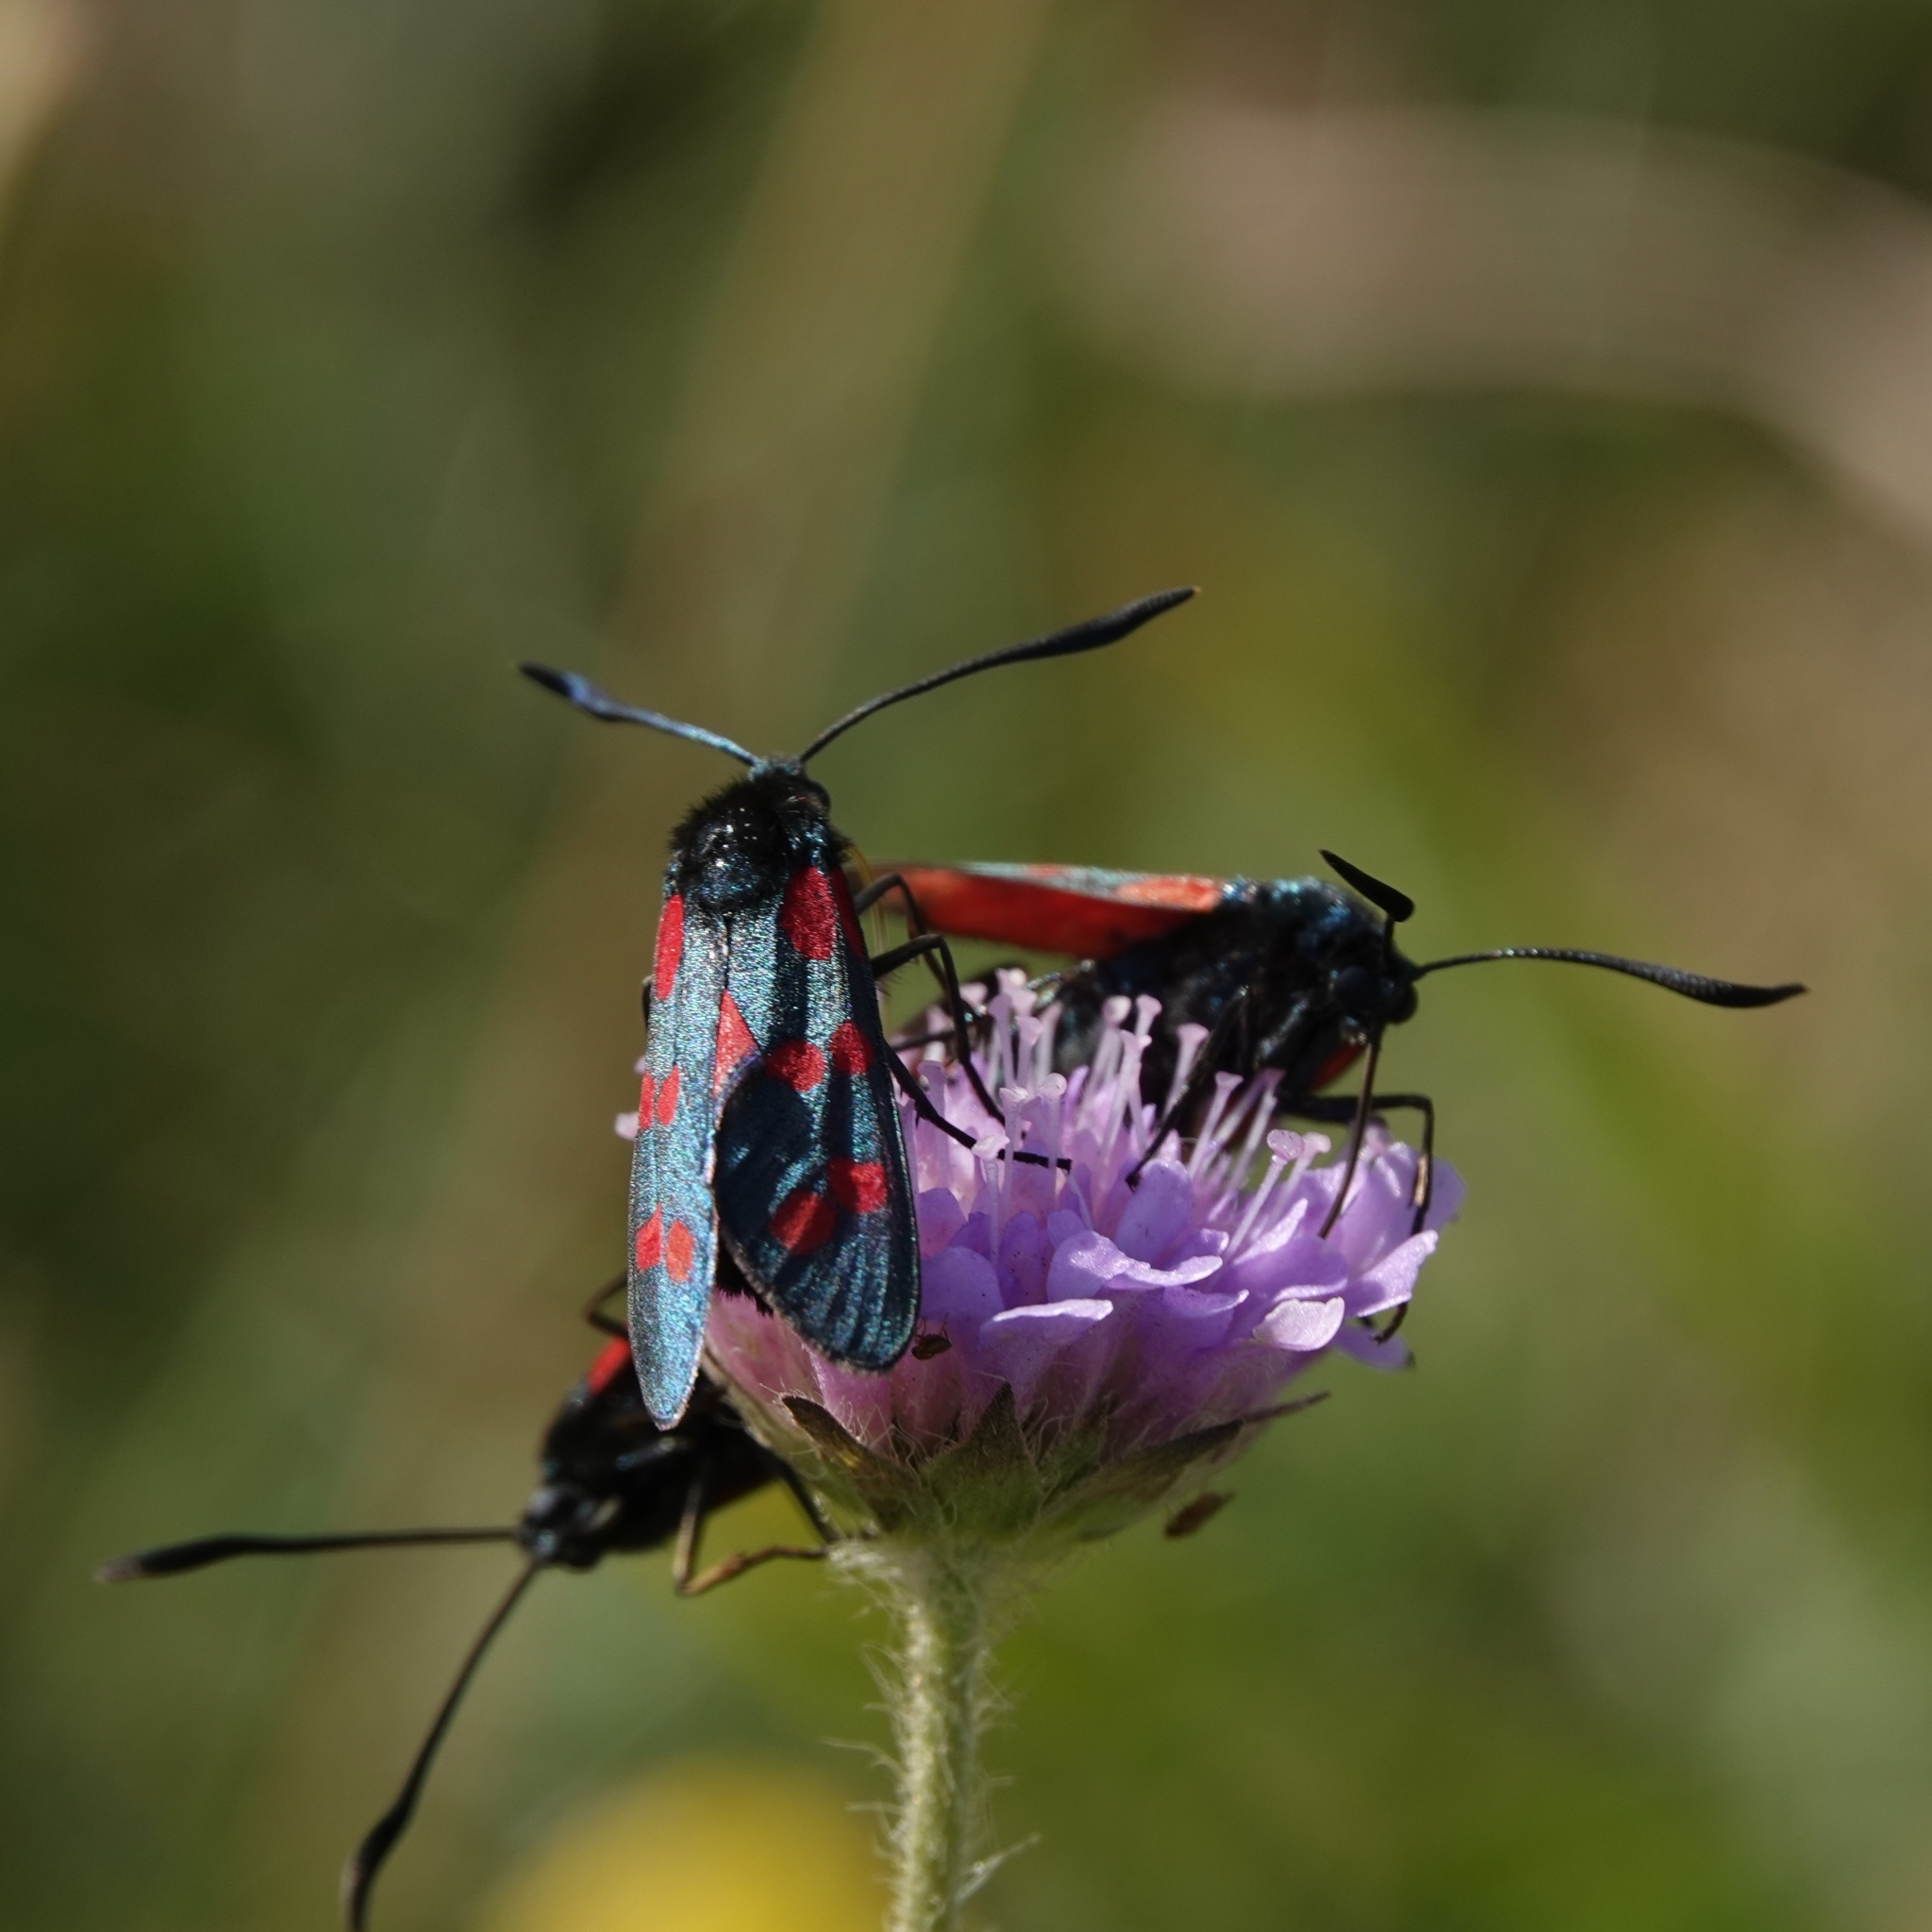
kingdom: Animalia
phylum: Arthropoda
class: Insecta
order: Lepidoptera
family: Zygaenidae
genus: Zygaena
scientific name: Zygaena filipendulae
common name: Six-spot burnet
